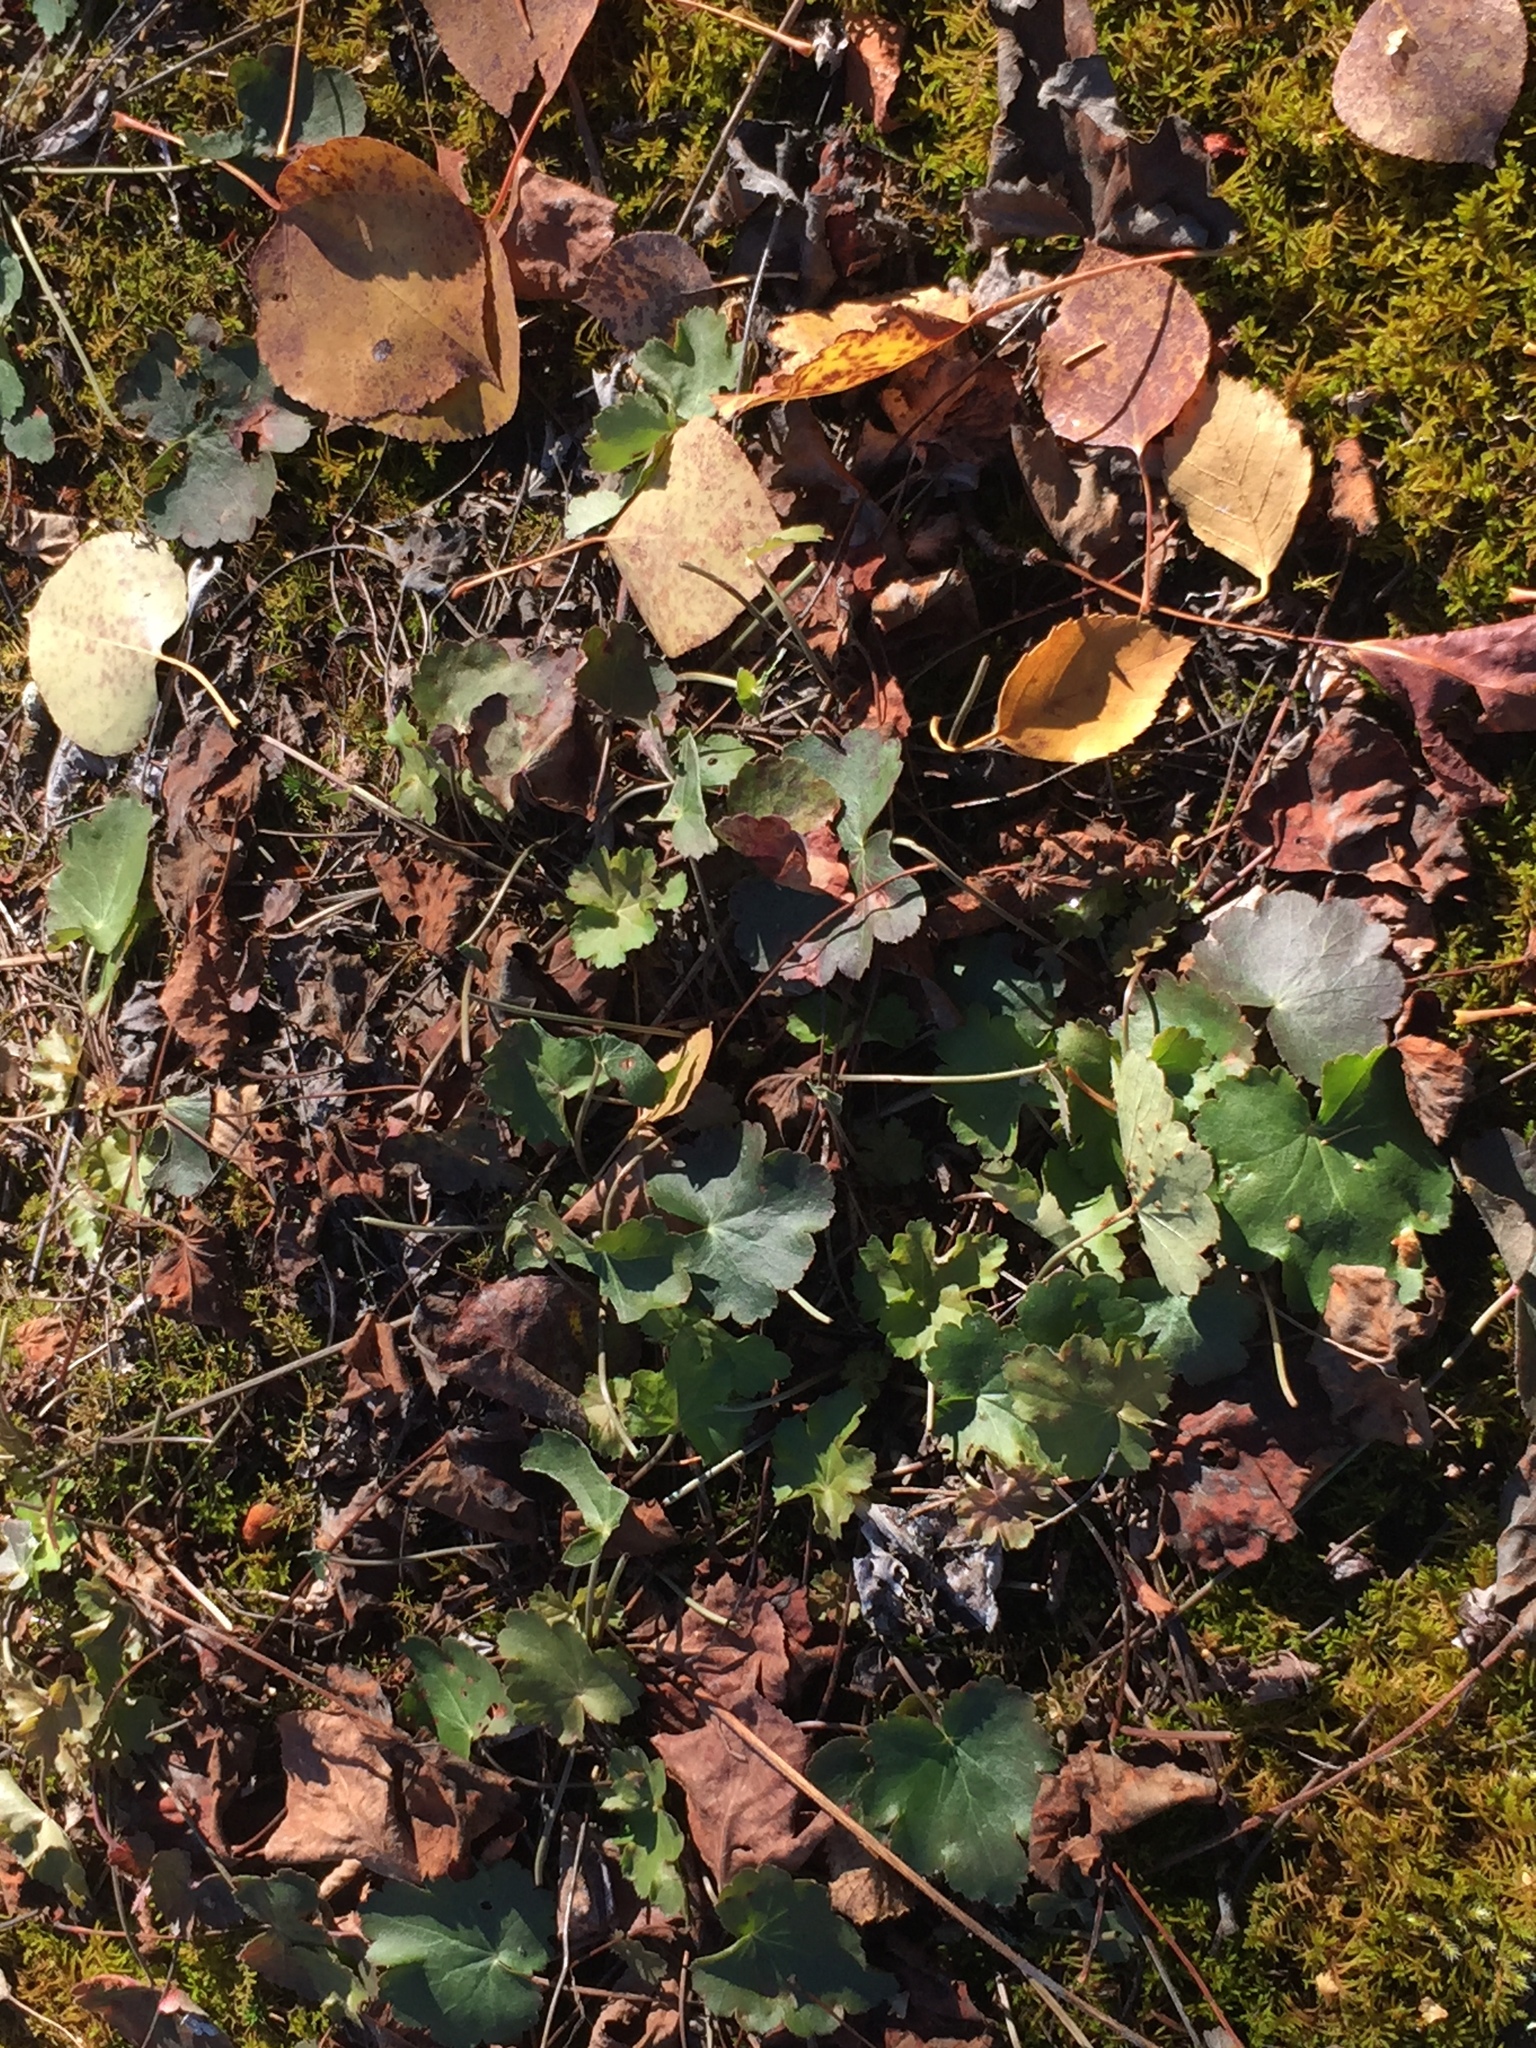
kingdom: Plantae
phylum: Tracheophyta
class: Magnoliopsida
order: Saxifragales
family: Saxifragaceae
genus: Heuchera
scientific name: Heuchera richardsonii
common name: Richardson's alumroot
